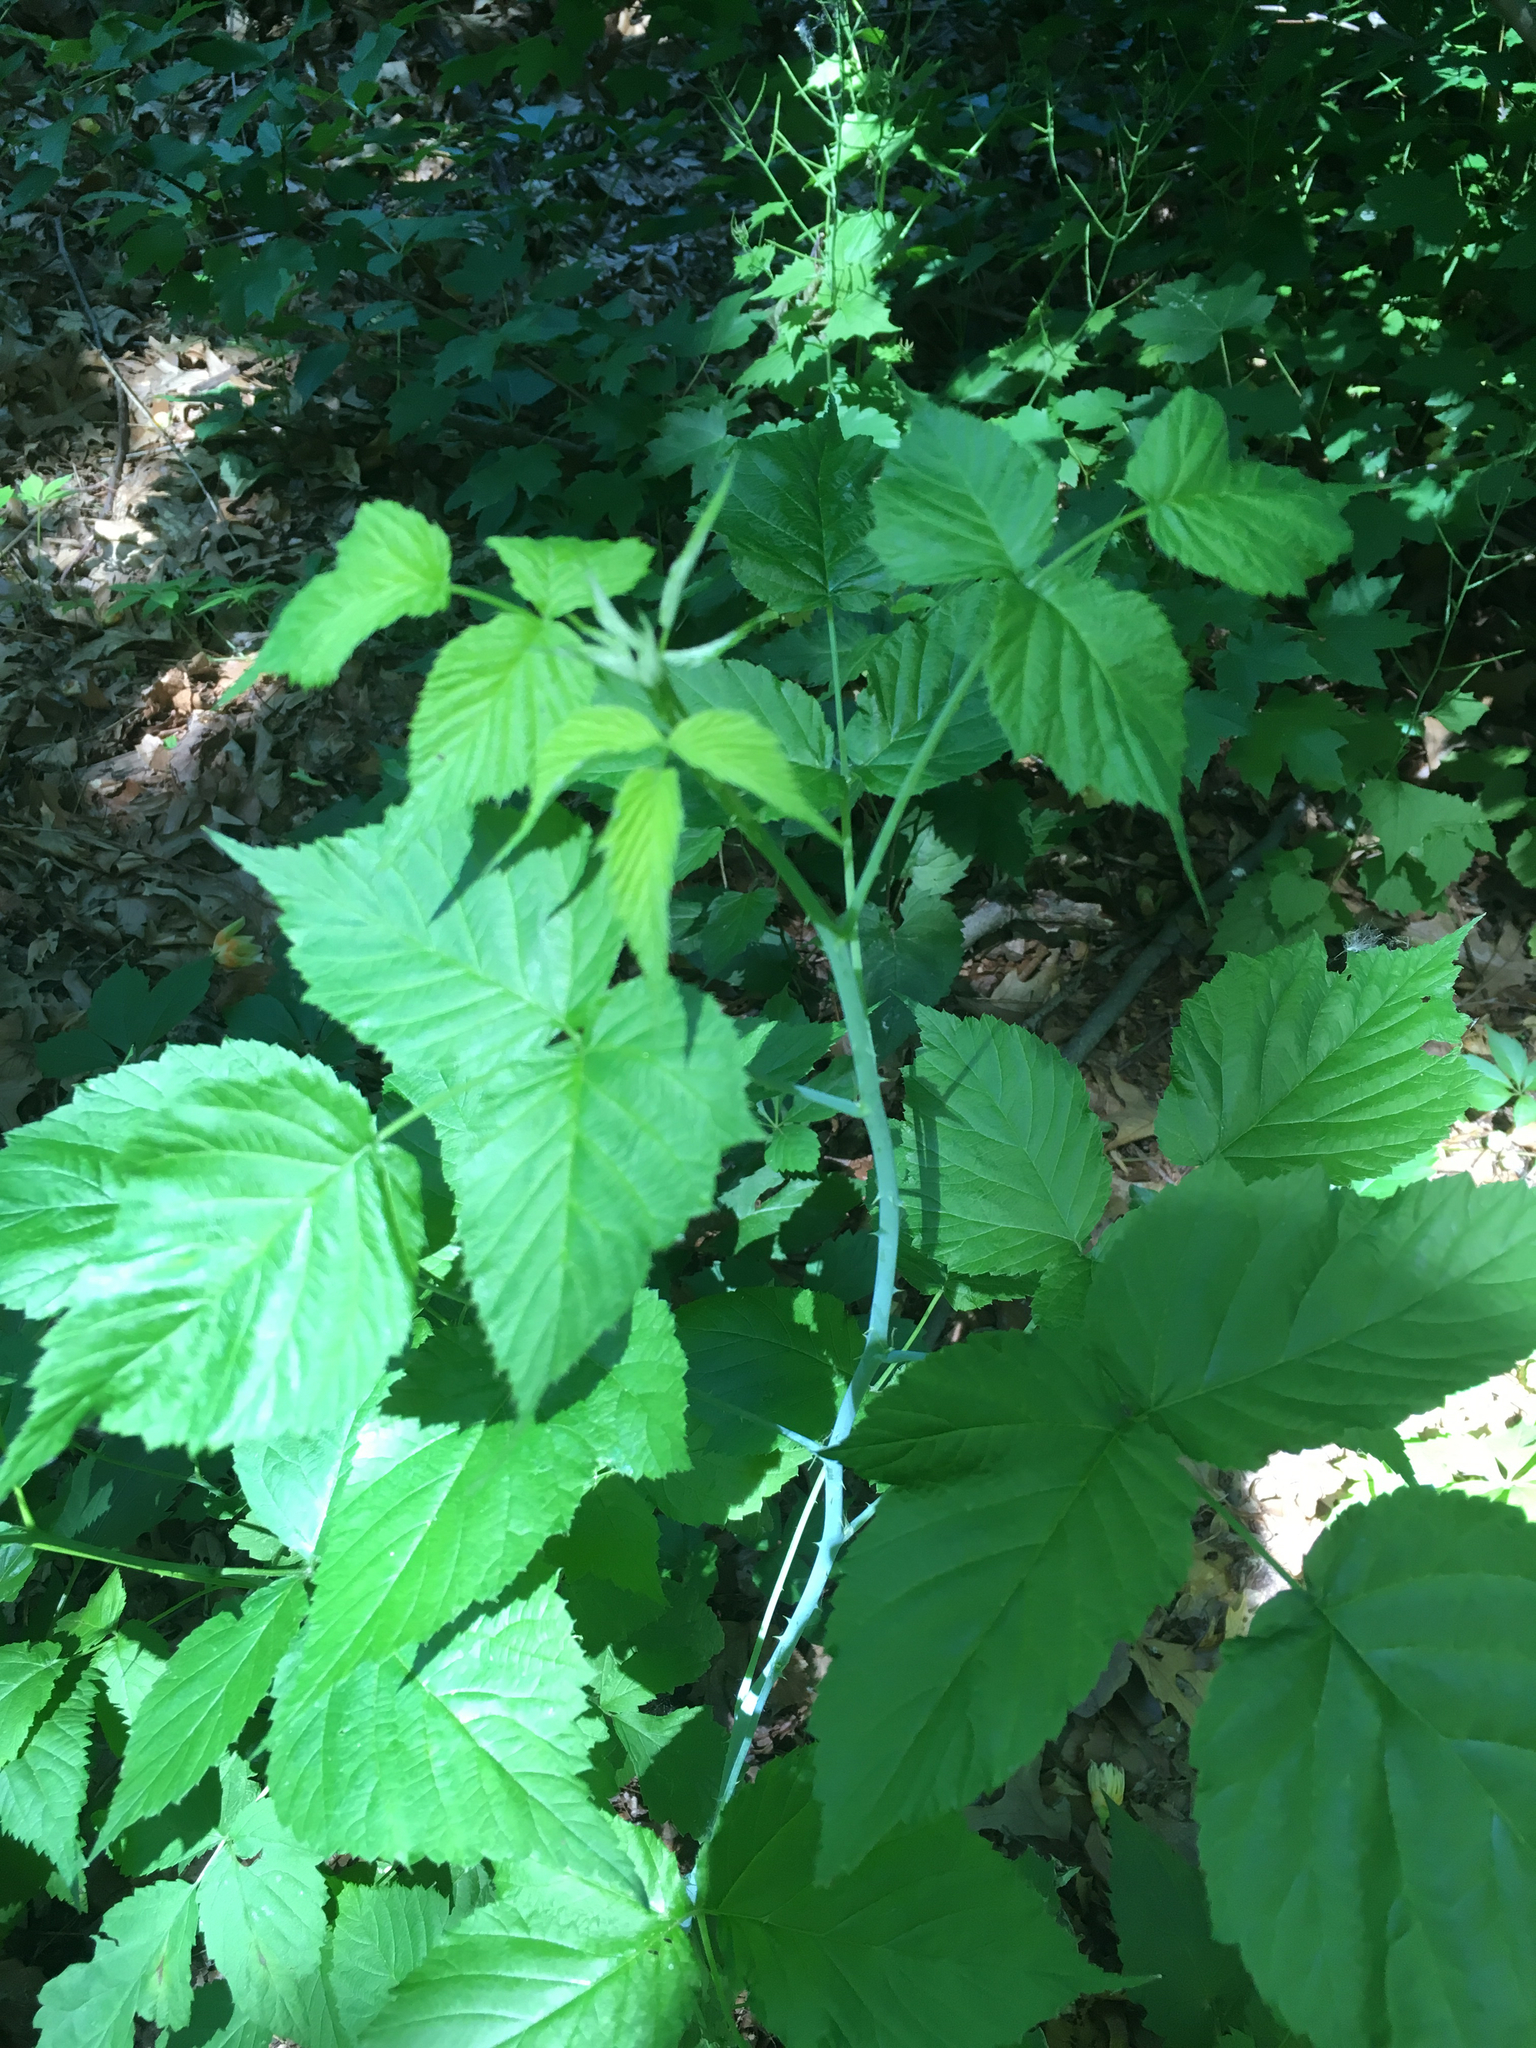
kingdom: Plantae
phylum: Tracheophyta
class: Magnoliopsida
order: Rosales
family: Rosaceae
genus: Rubus
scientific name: Rubus occidentalis
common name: Black raspberry
